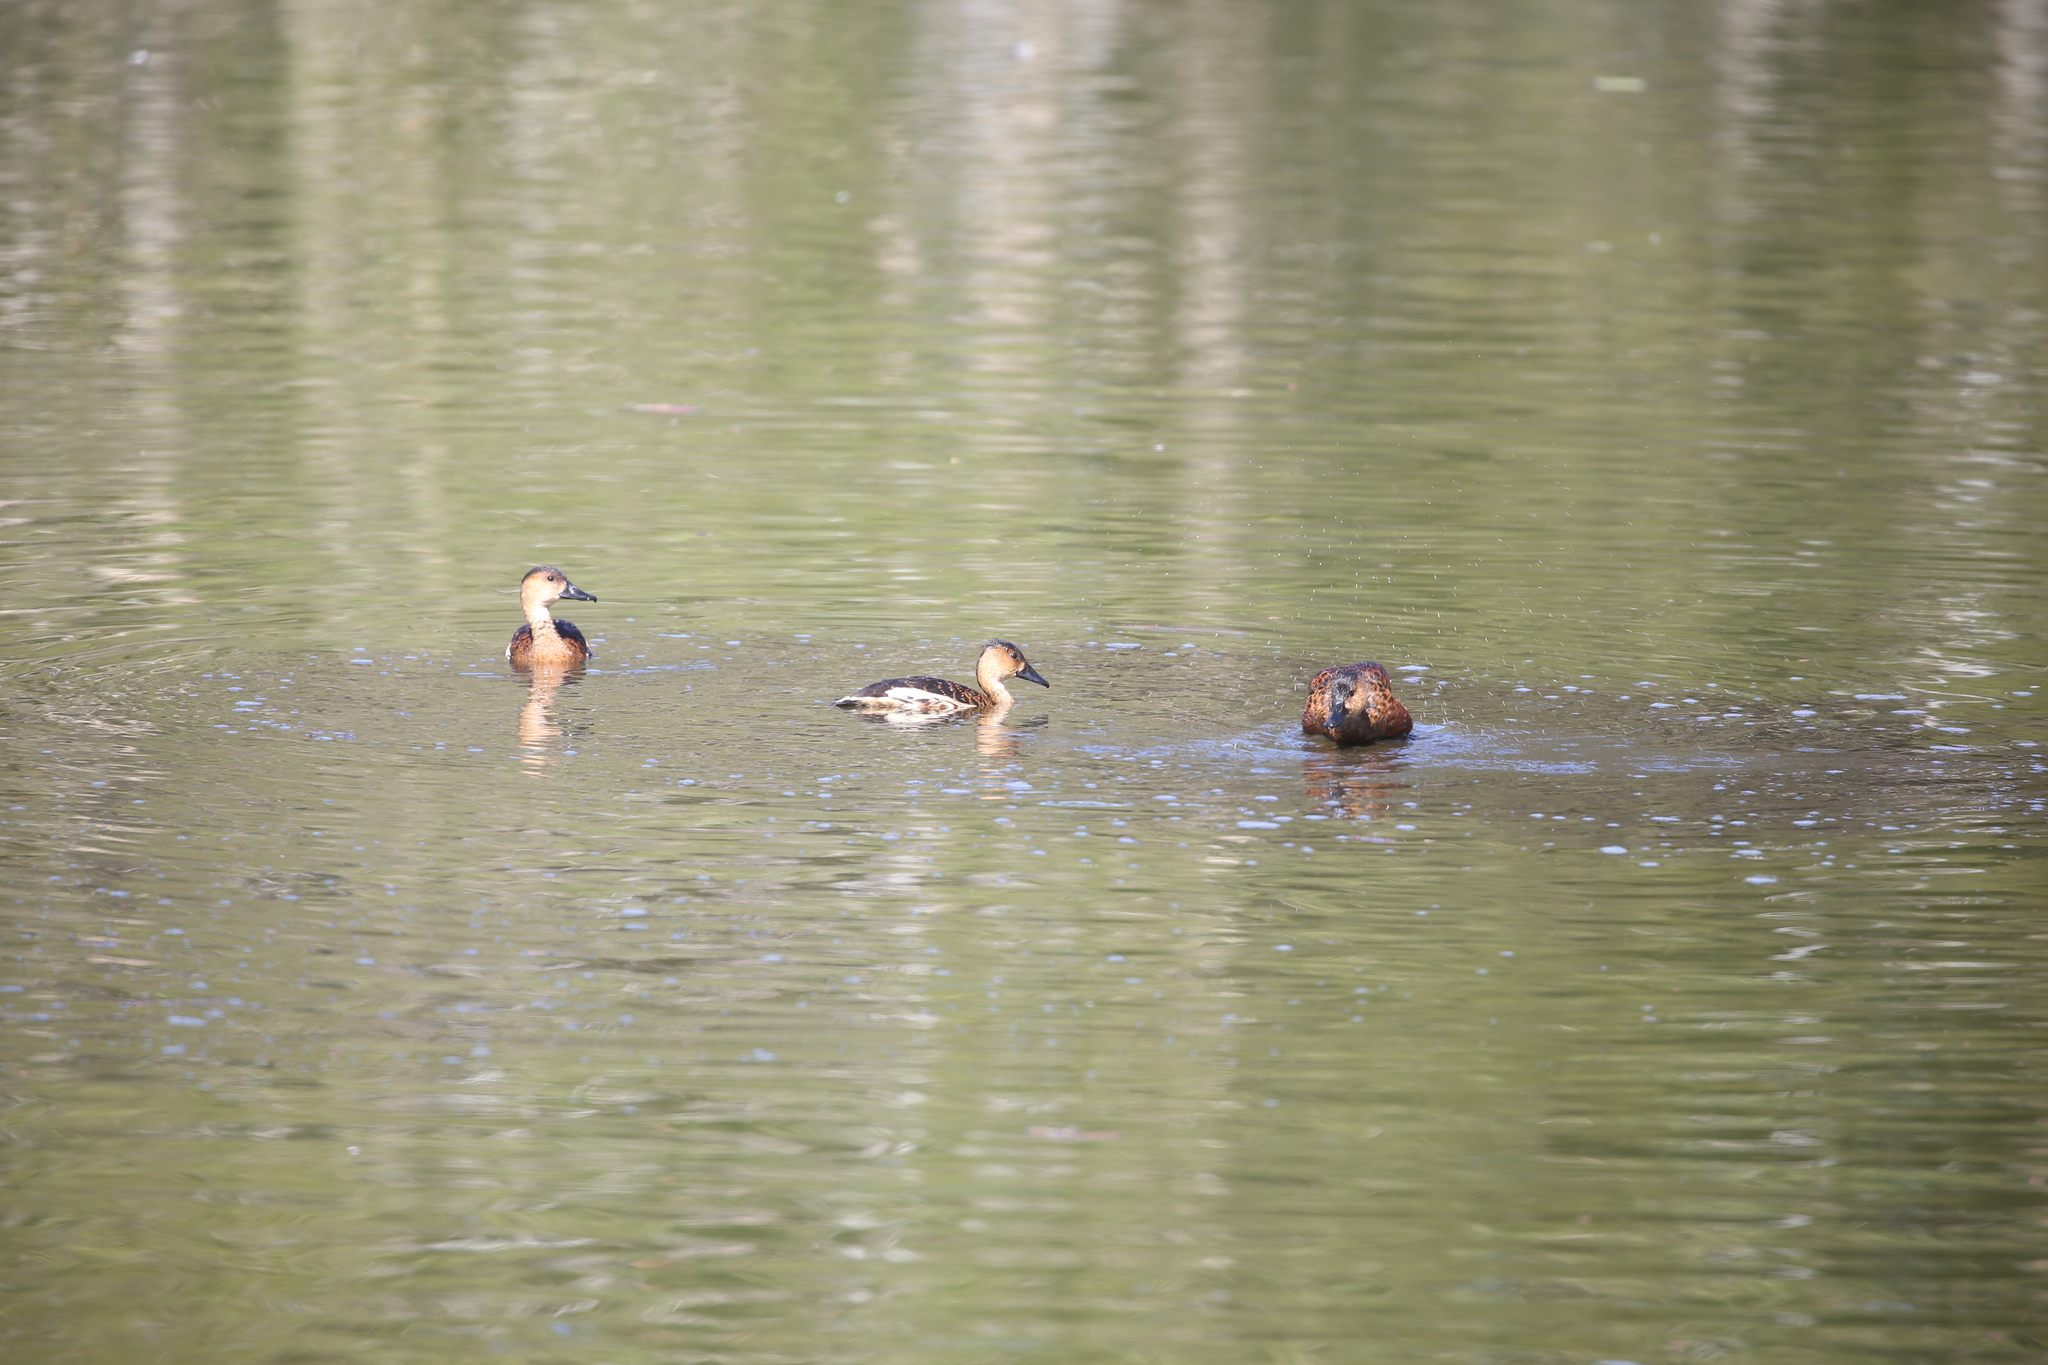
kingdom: Animalia
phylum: Chordata
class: Aves
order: Anseriformes
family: Anatidae
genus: Dendrocygna
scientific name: Dendrocygna arcuata
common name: Wandering whistling-duck
